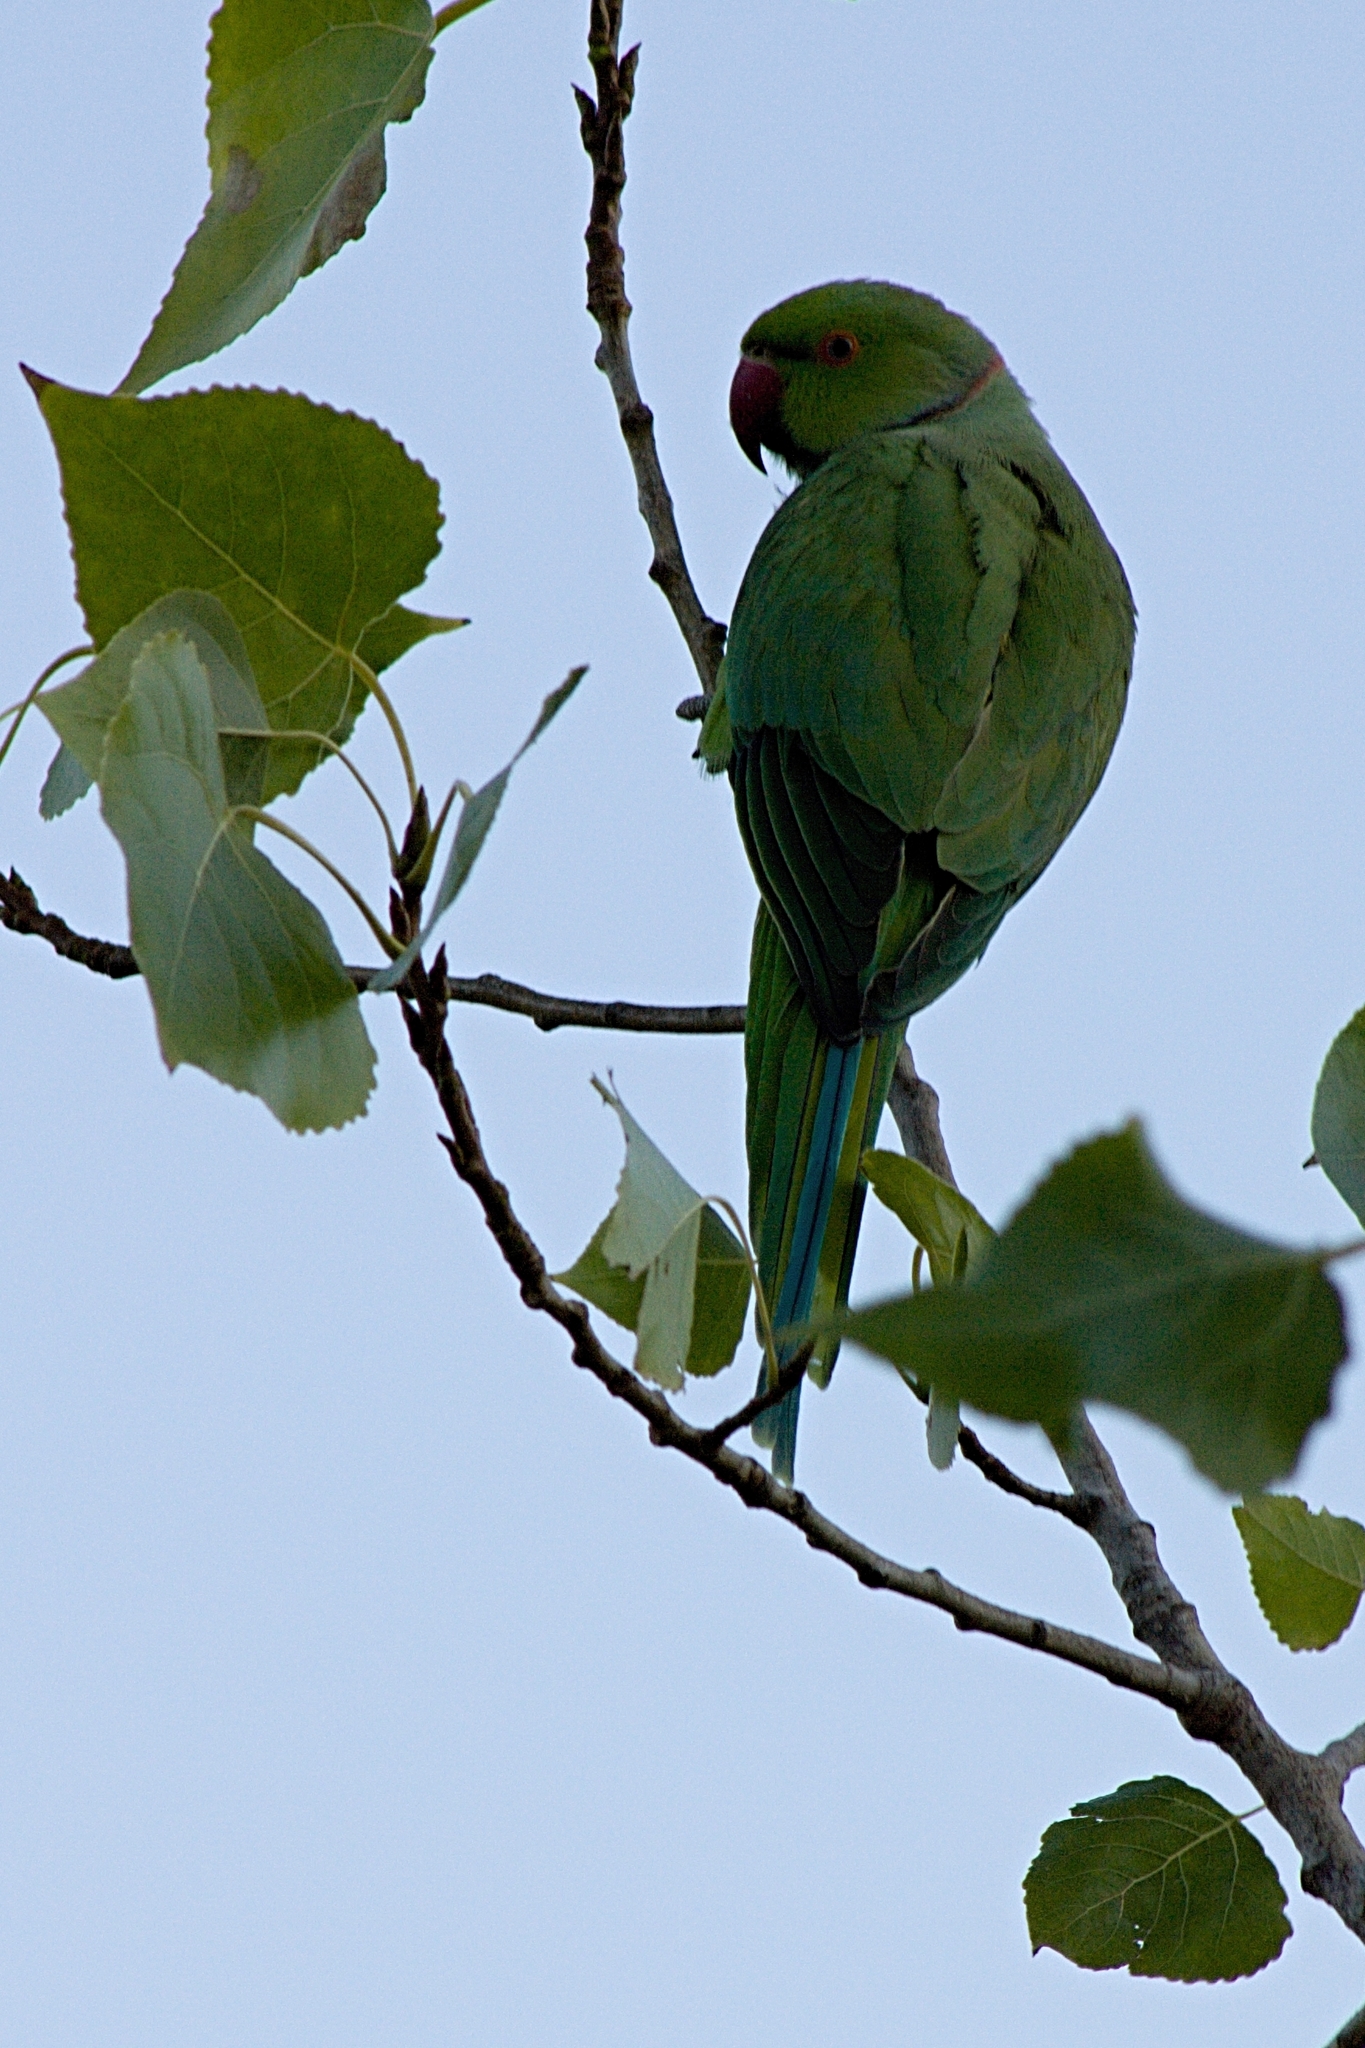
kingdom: Animalia
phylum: Chordata
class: Aves
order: Psittaciformes
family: Psittacidae
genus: Psittacula
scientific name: Psittacula krameri
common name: Rose-ringed parakeet
